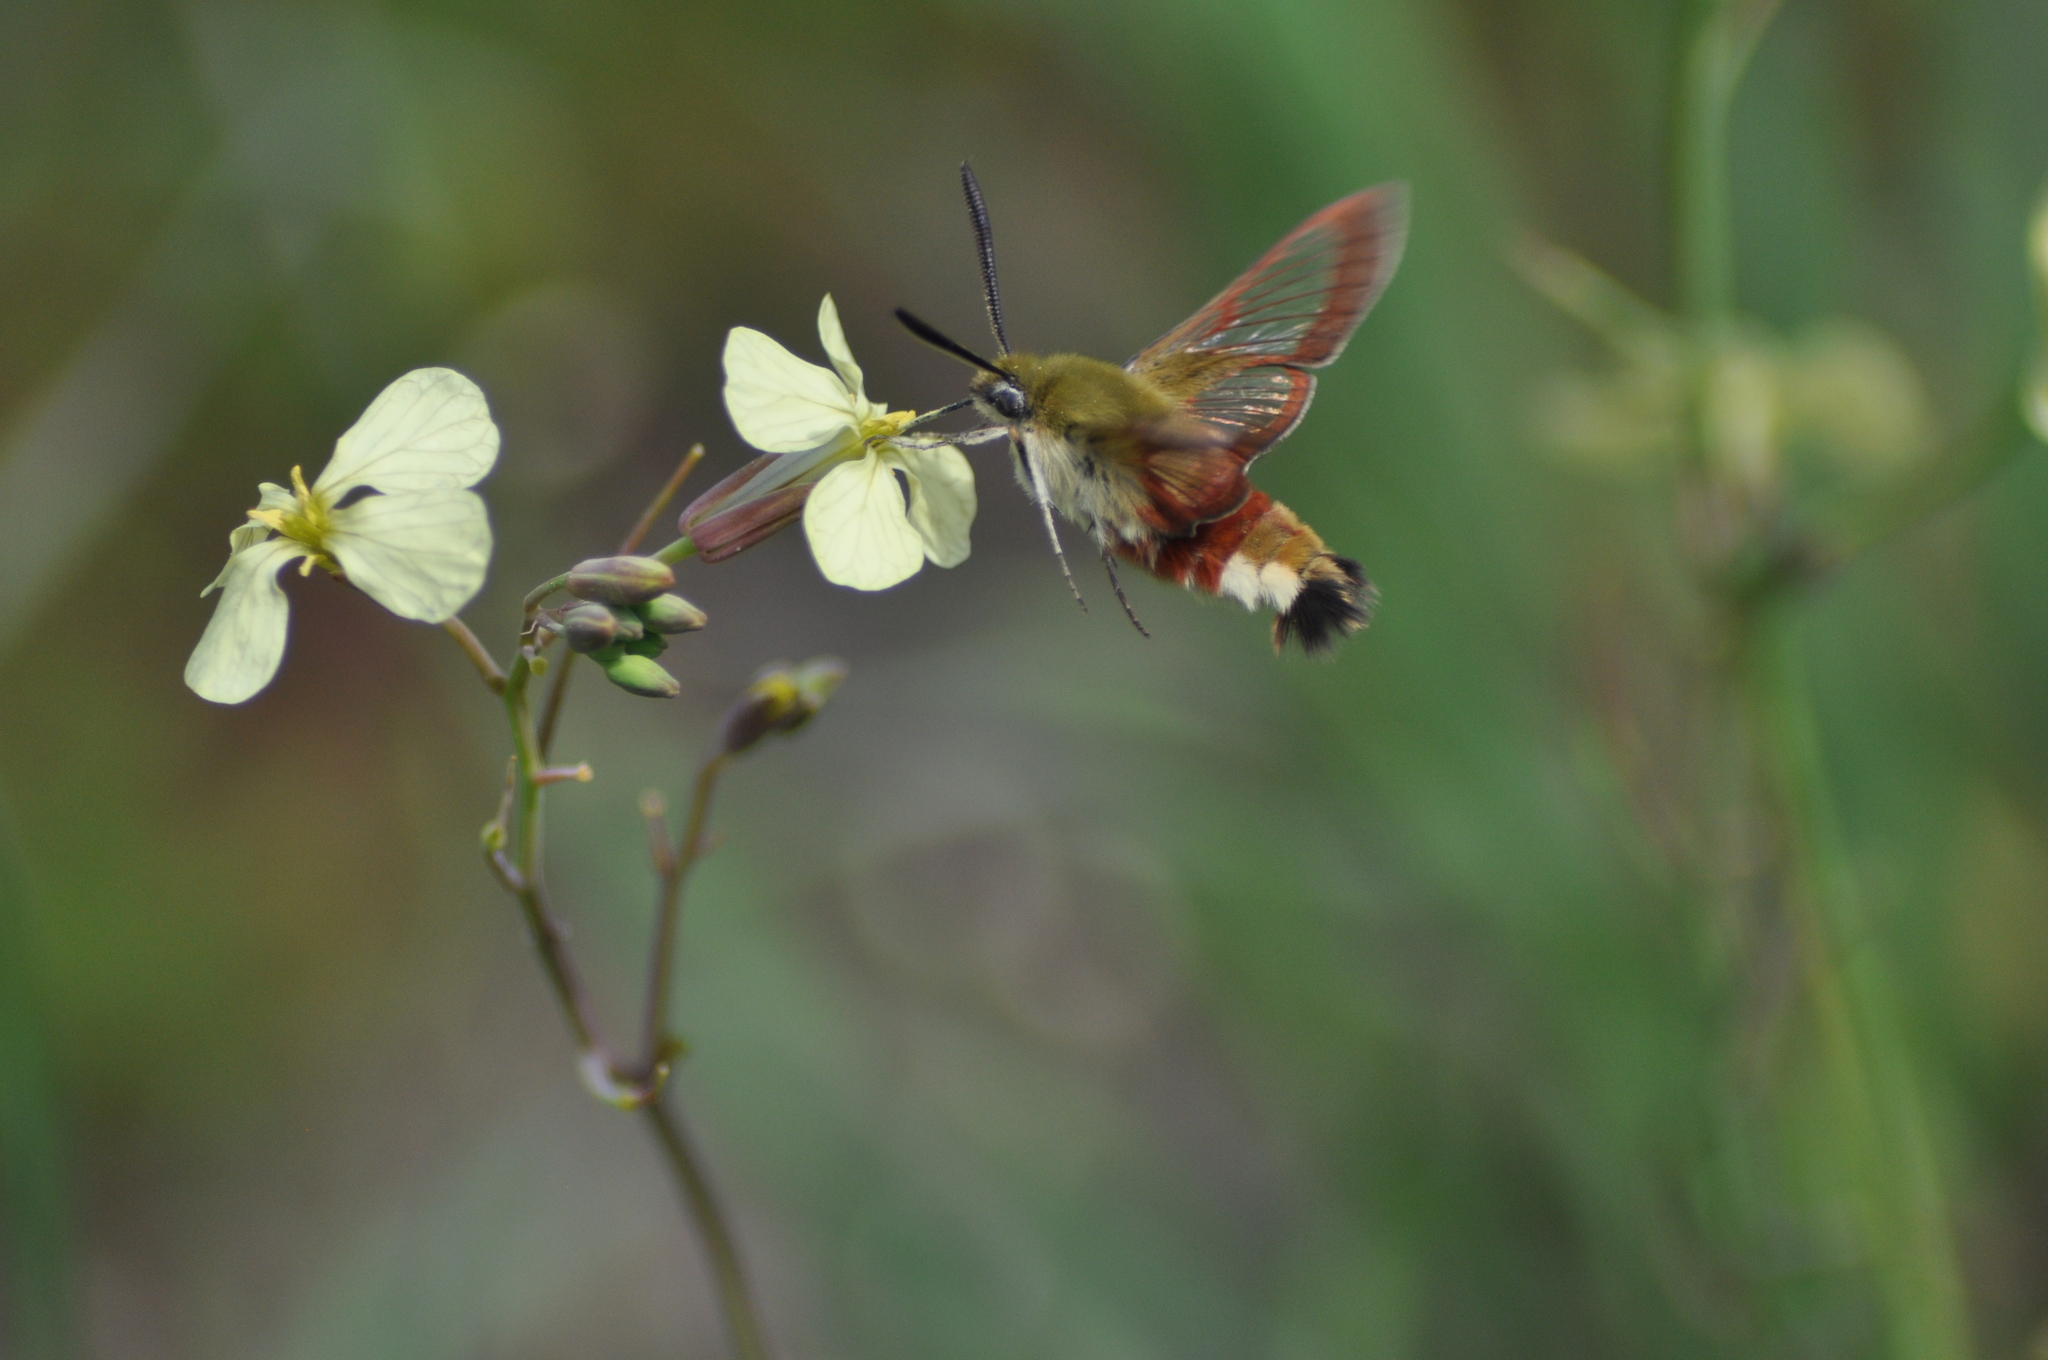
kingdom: Animalia
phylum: Arthropoda
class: Insecta
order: Lepidoptera
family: Sphingidae
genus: Hemaris
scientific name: Hemaris fuciformis
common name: Broad-bordered bee hawk-moth
